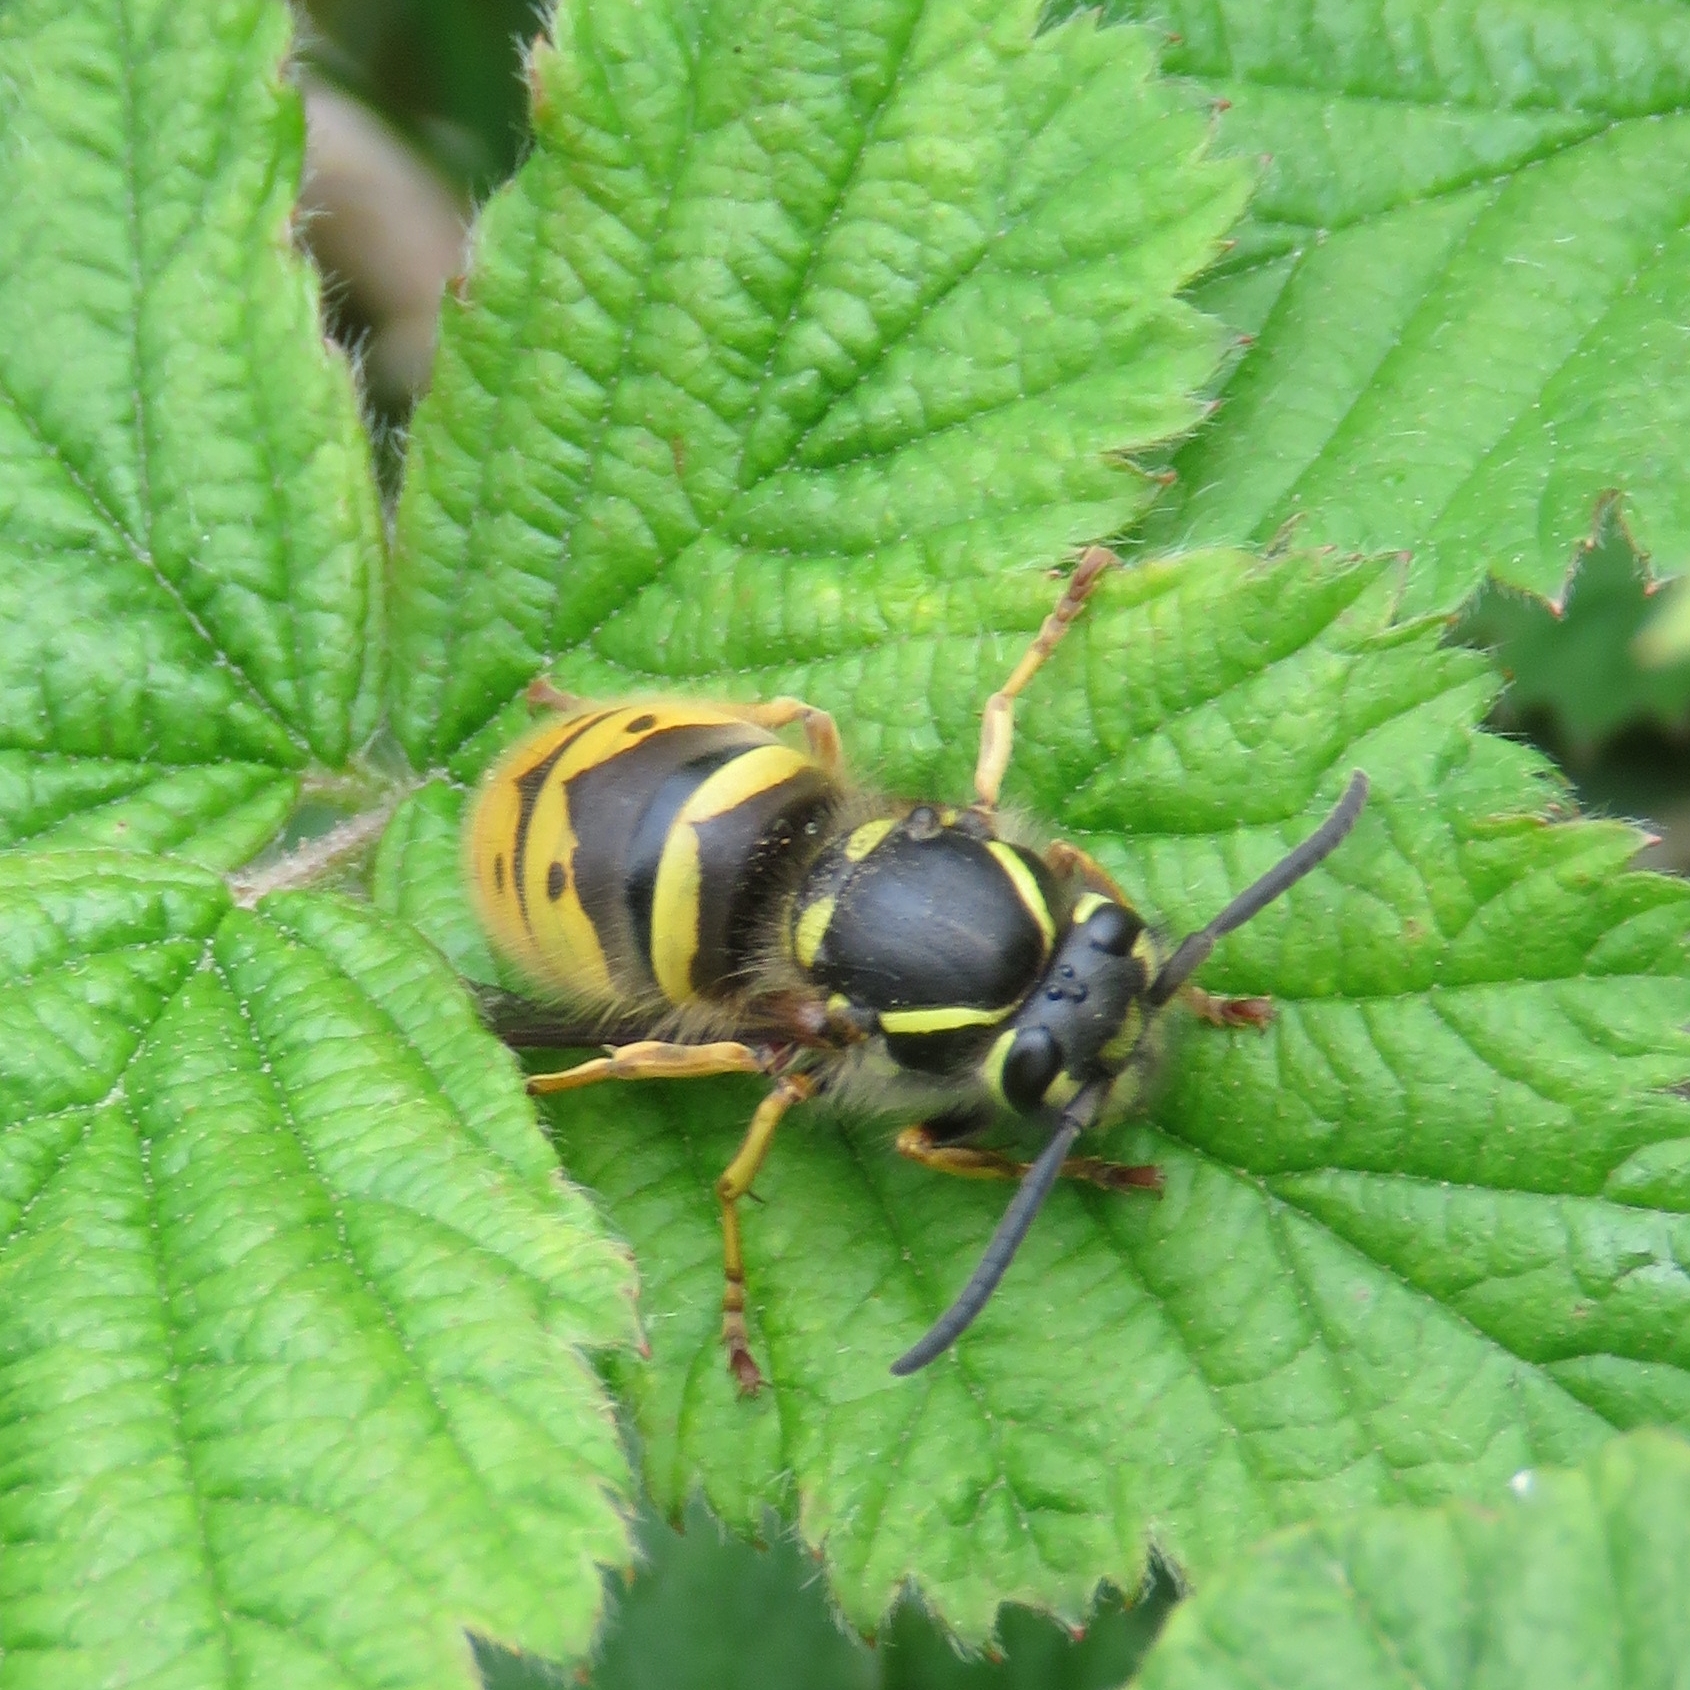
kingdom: Animalia
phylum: Arthropoda
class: Insecta
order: Hymenoptera
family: Vespidae
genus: Vespula
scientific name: Vespula vulgaris
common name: Common wasp
